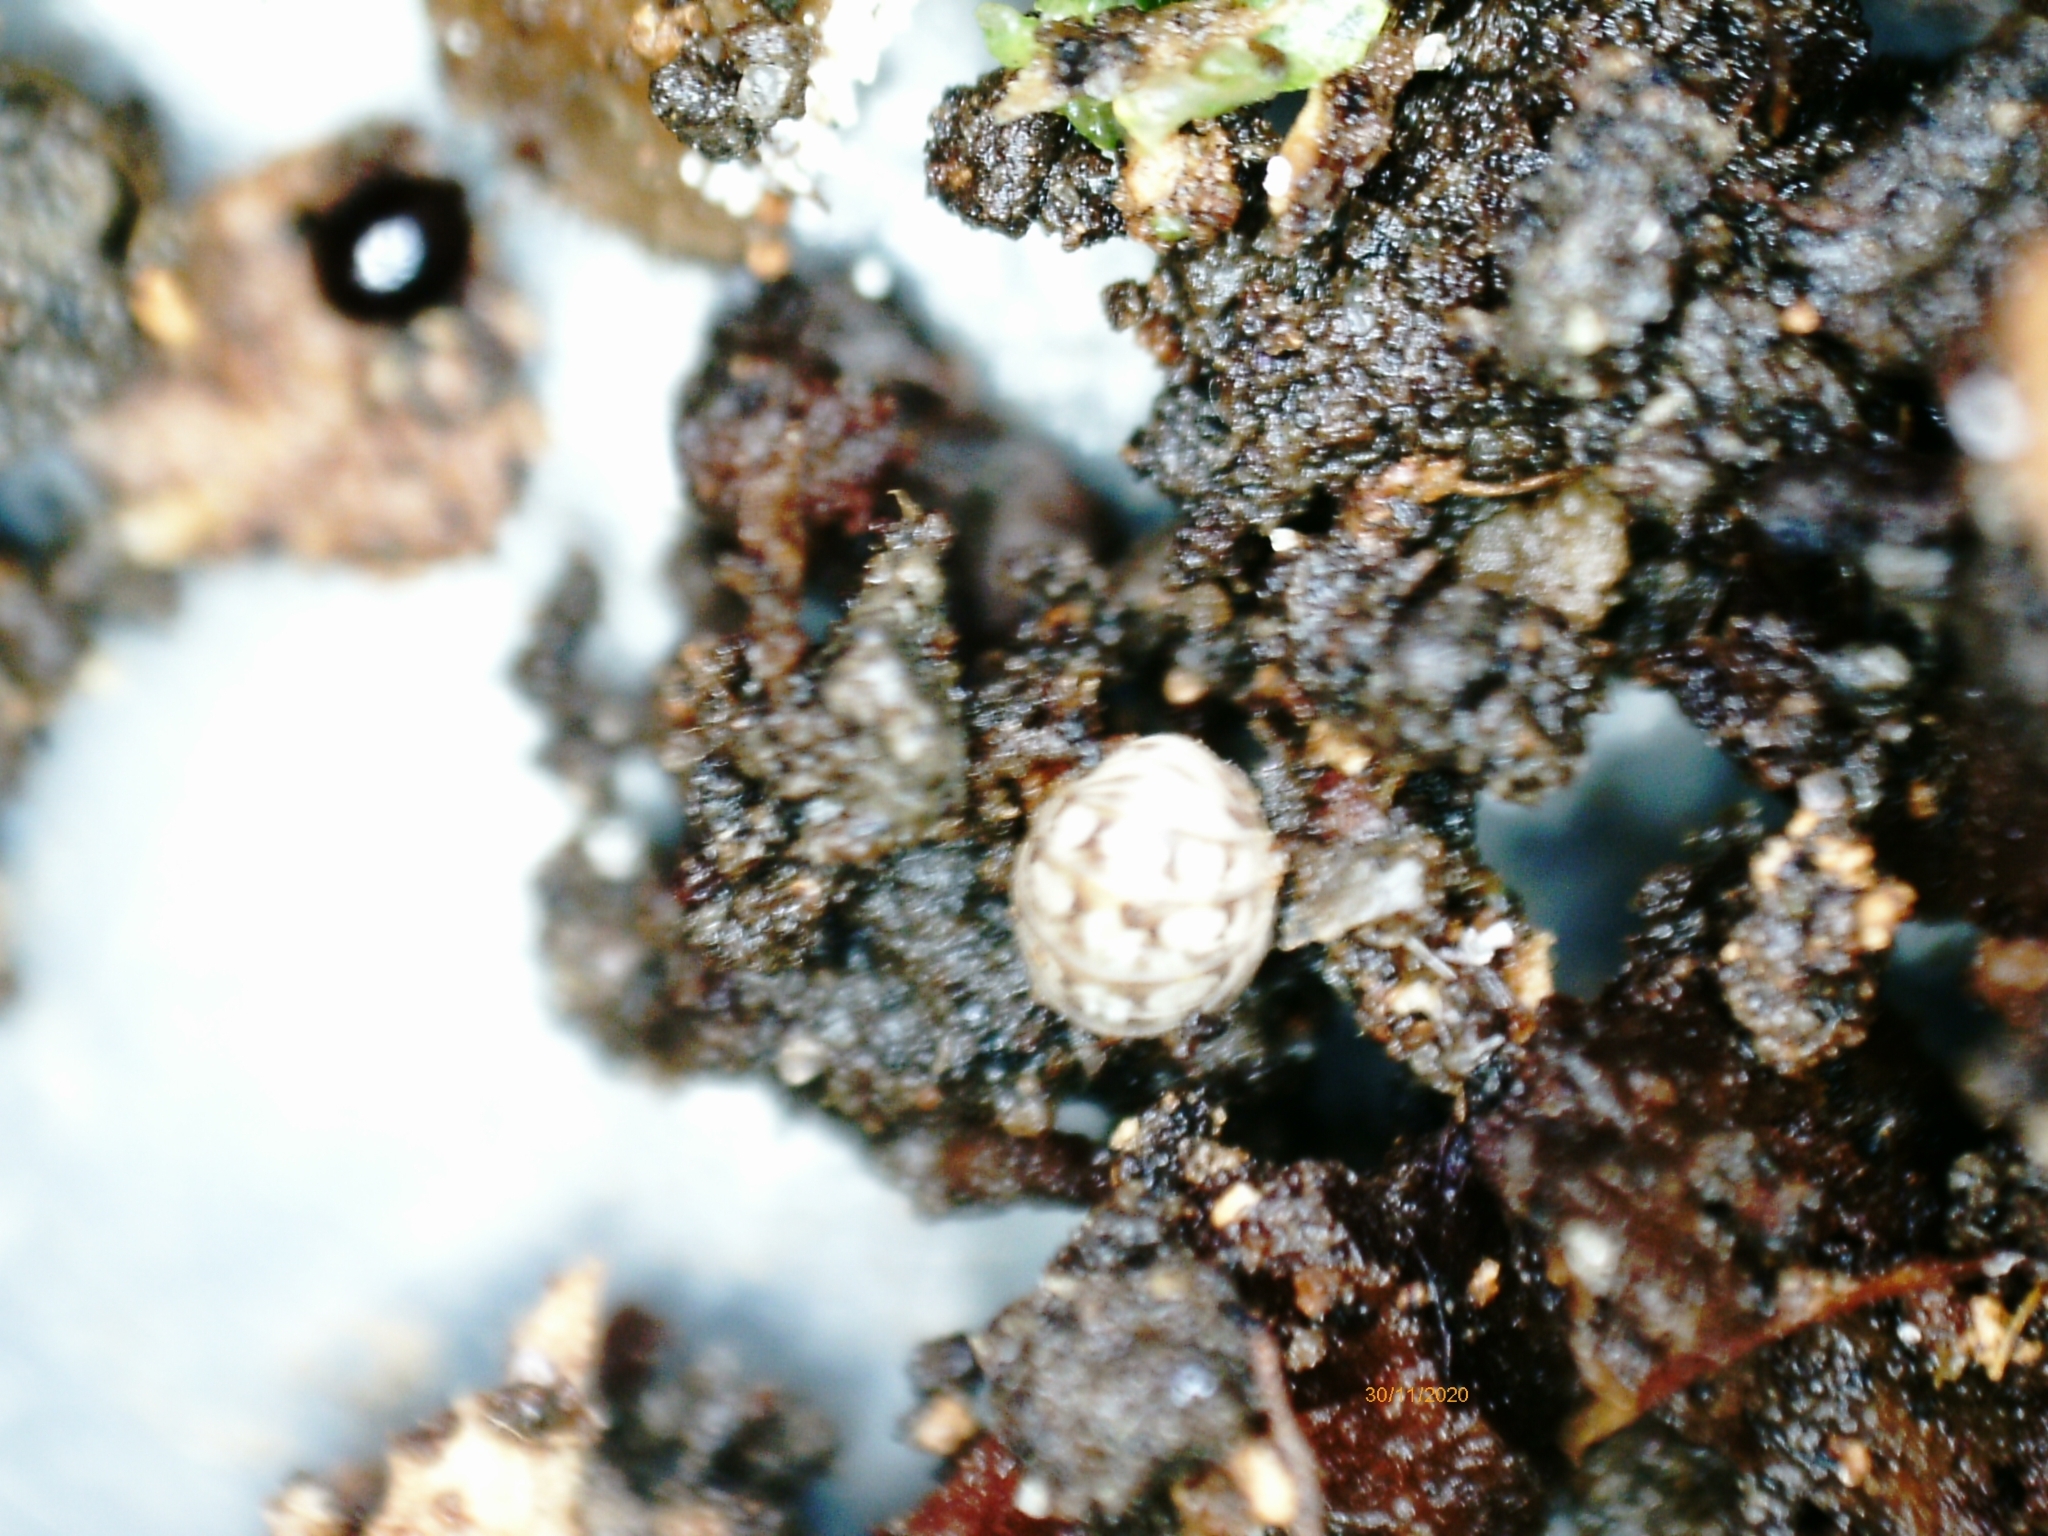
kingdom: Animalia
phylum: Arthropoda
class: Malacostraca
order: Isopoda
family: Armadillidiidae
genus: Armadillidium
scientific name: Armadillidium
